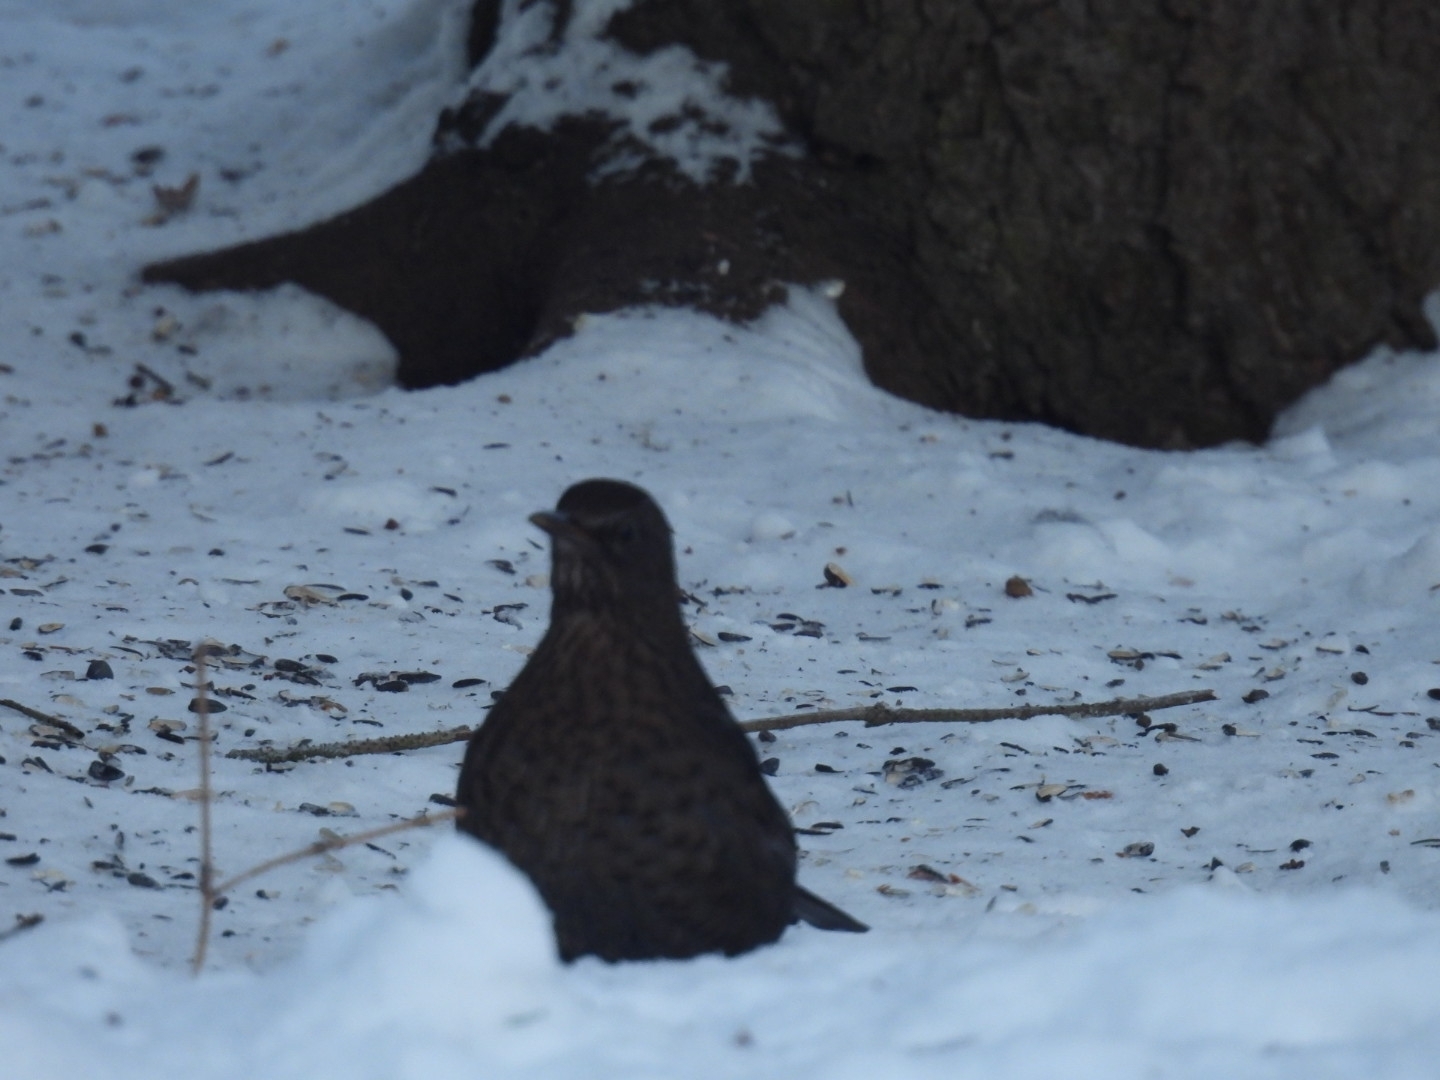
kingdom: Animalia
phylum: Chordata
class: Aves
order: Passeriformes
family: Turdidae
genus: Turdus
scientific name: Turdus merula
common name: Common blackbird
